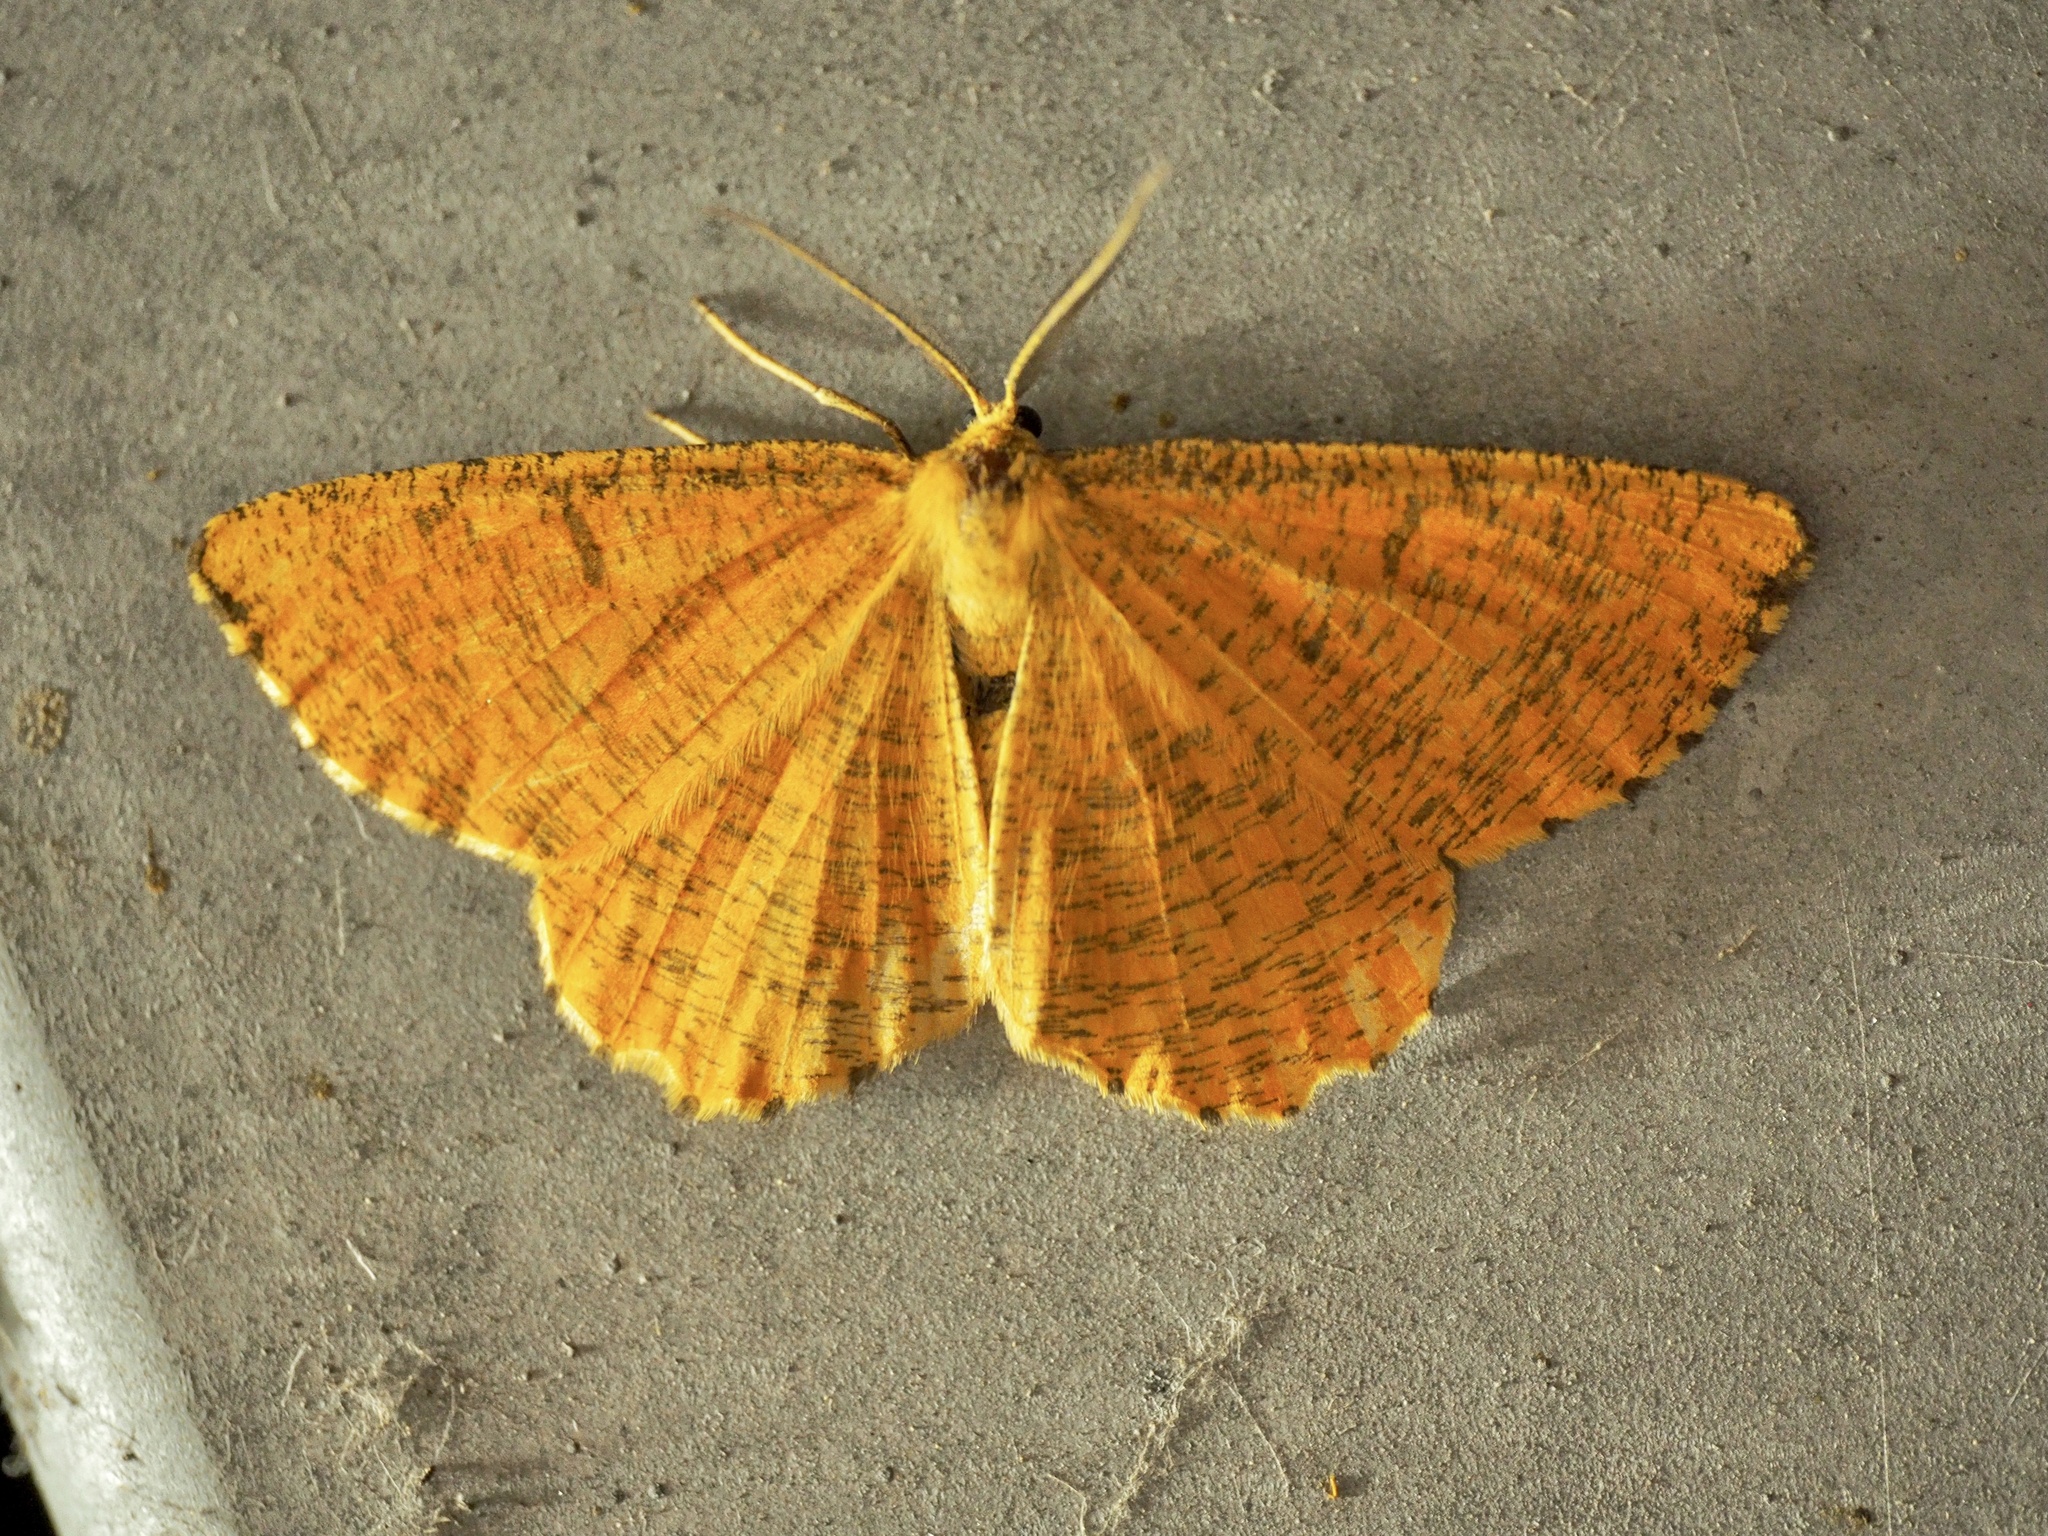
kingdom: Animalia
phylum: Arthropoda
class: Insecta
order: Lepidoptera
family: Geometridae
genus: Angerona
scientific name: Angerona prunaria
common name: Orange moth
